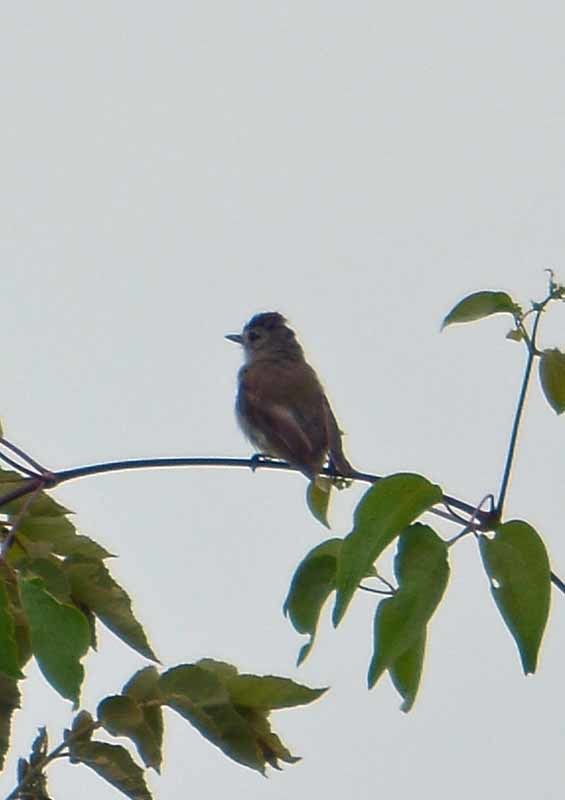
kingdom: Animalia
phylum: Chordata
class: Aves
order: Passeriformes
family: Vireonidae
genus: Vireo
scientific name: Vireo gilvus
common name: Warbling vireo
